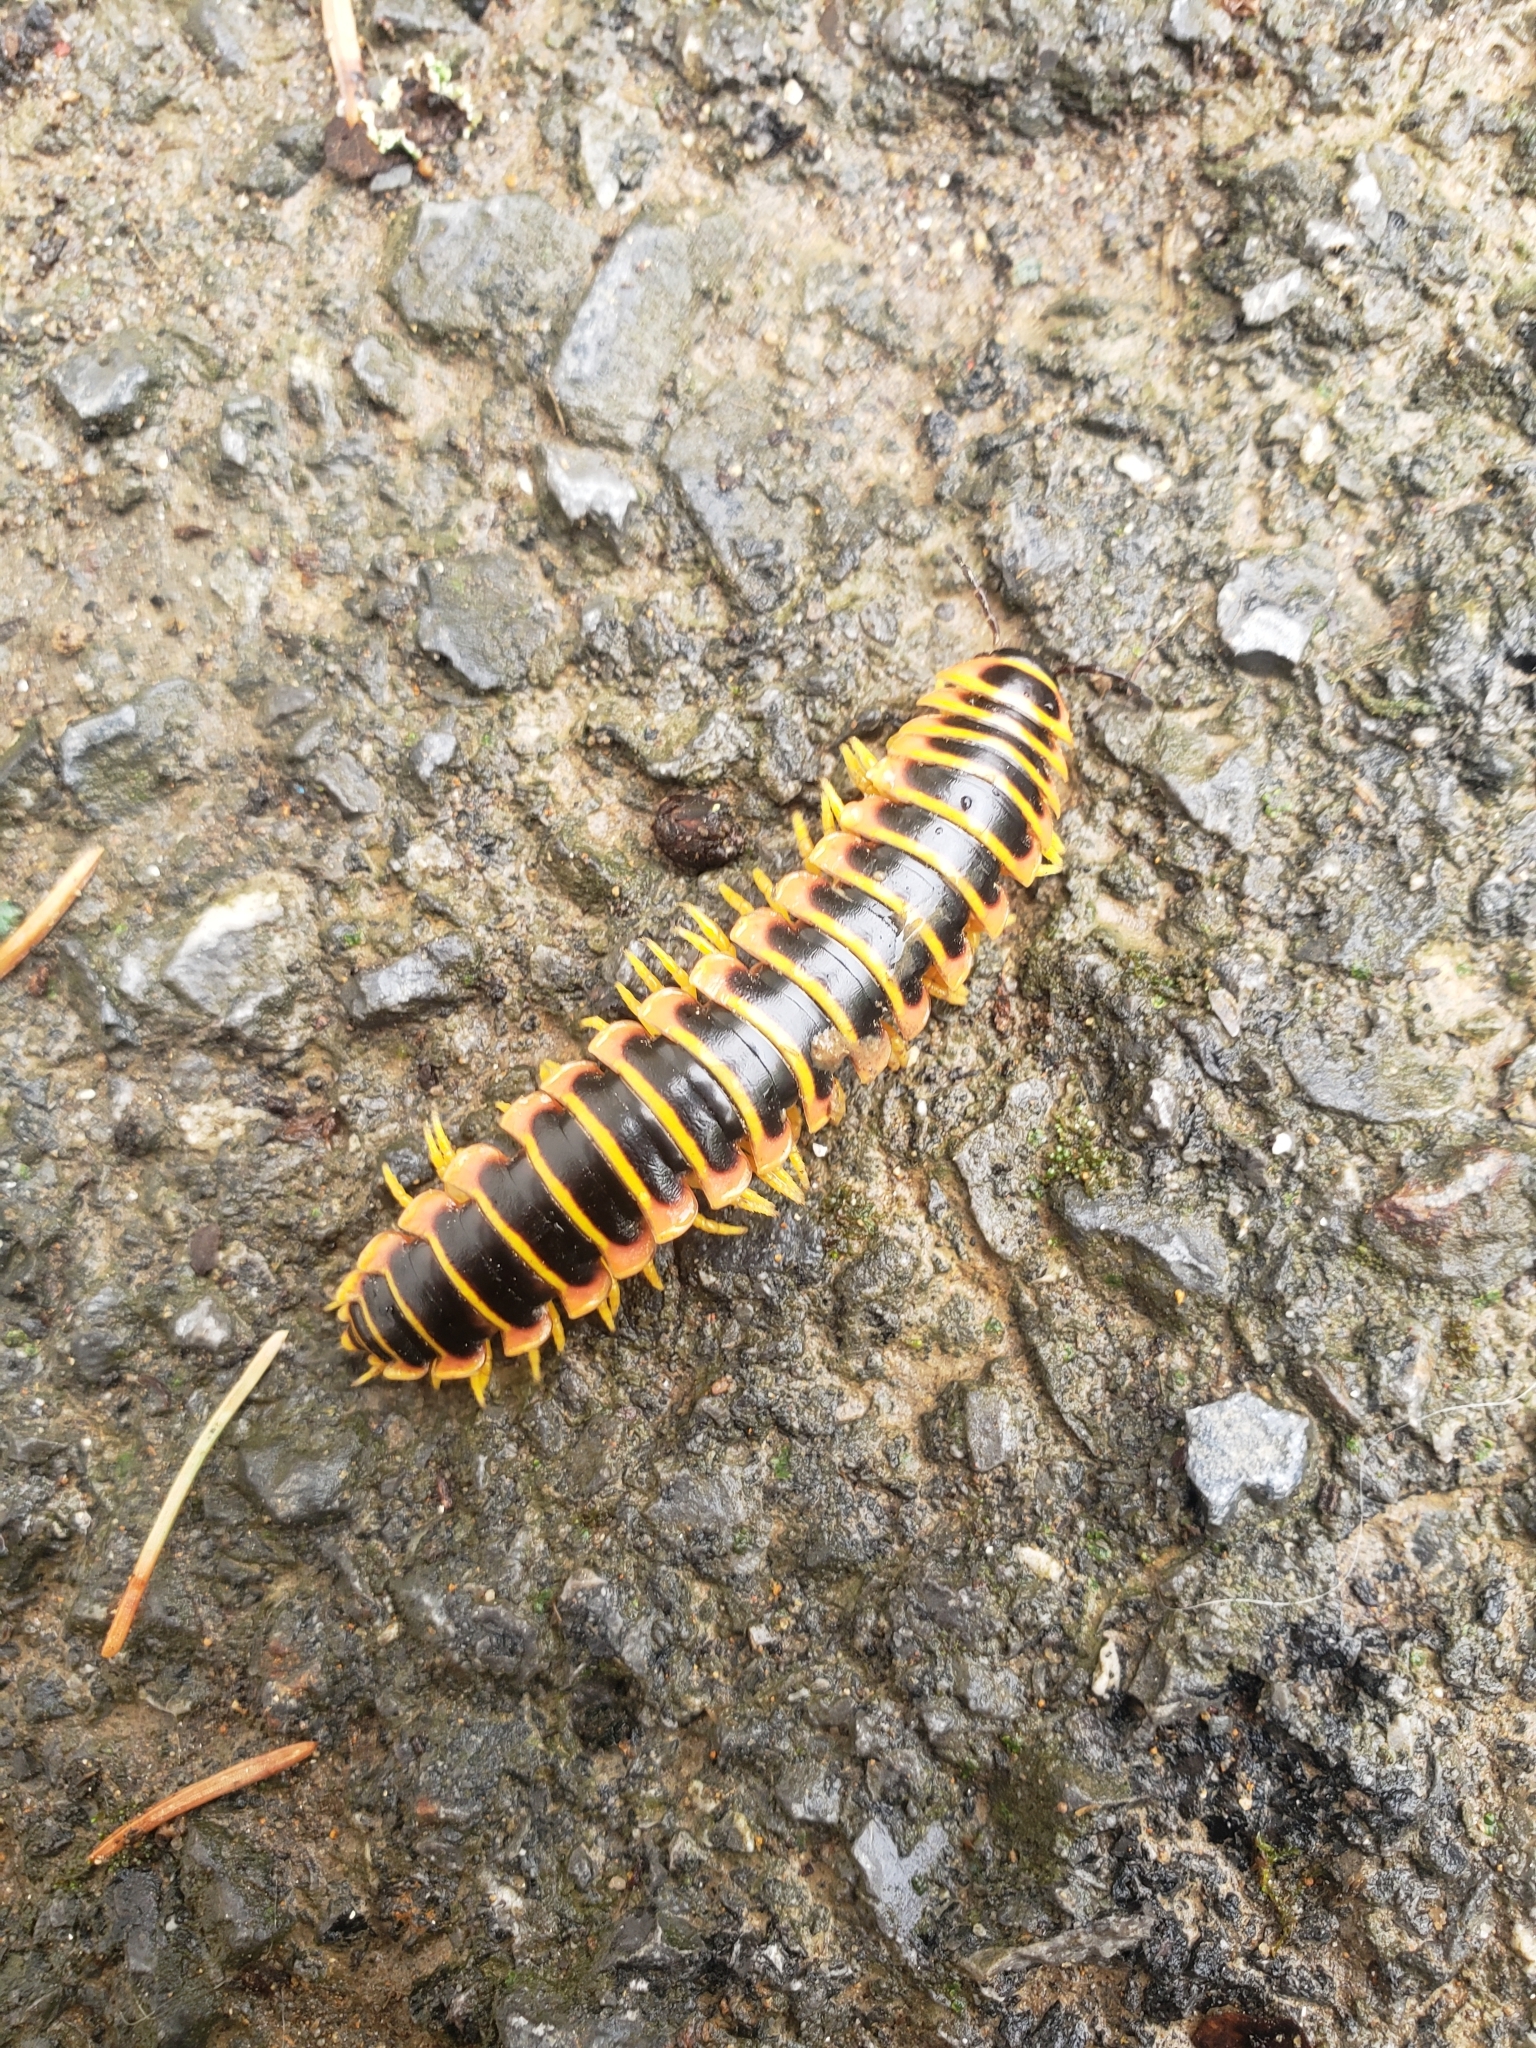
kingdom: Animalia
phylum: Arthropoda
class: Diplopoda
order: Polydesmida
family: Xystodesmidae
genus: Apheloria
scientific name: Apheloria virginiensis
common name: Black-and-gold flat millipede
